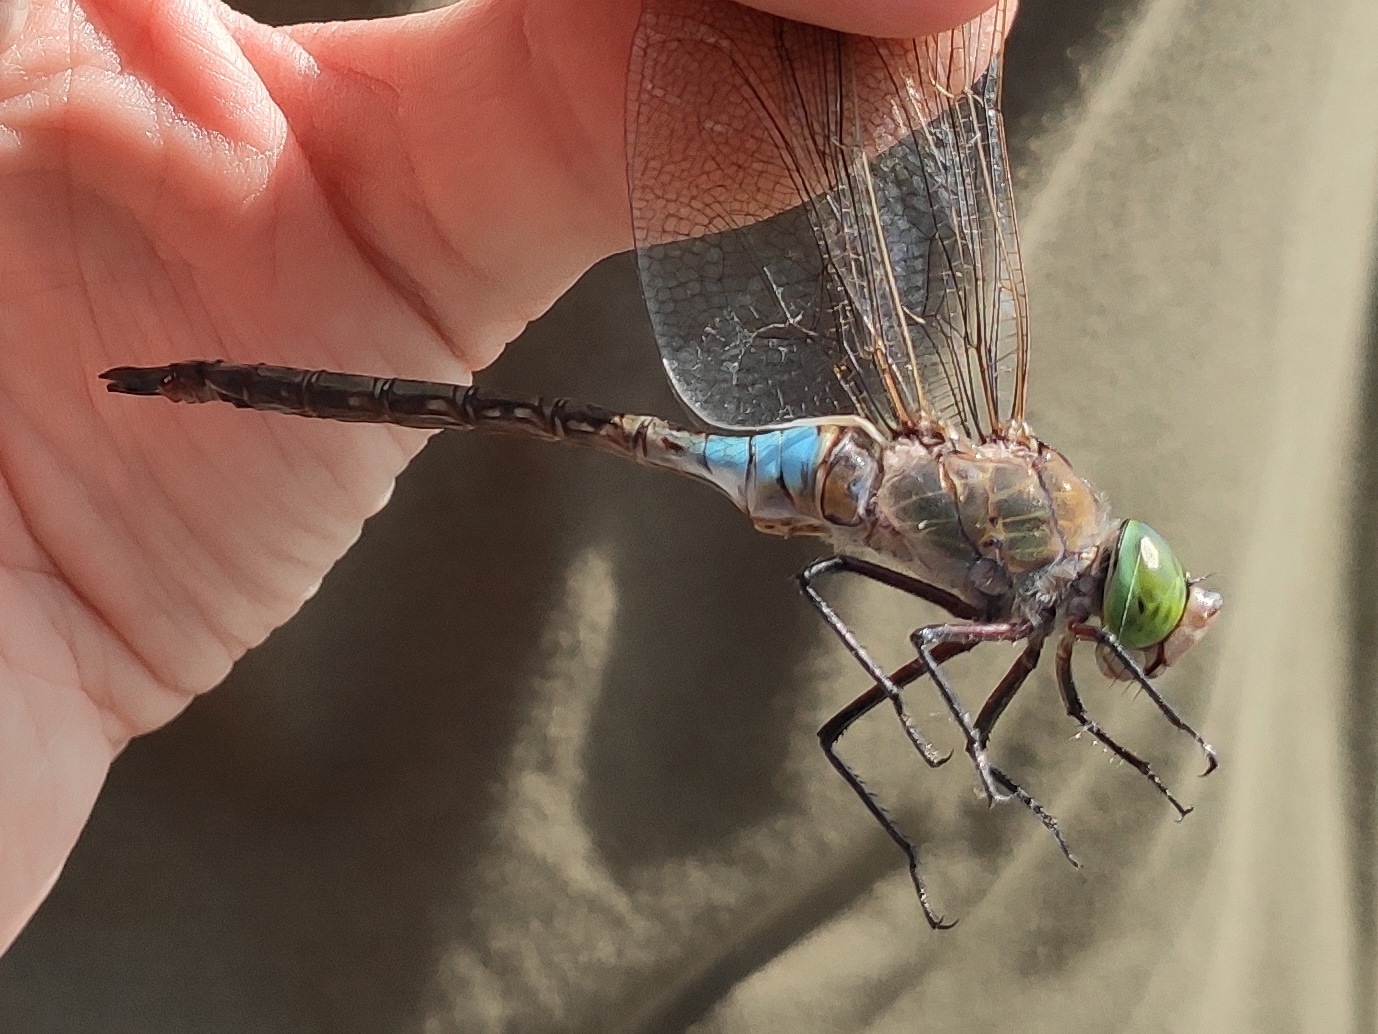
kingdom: Animalia
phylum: Arthropoda
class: Insecta
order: Odonata
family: Aeshnidae
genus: Anax
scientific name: Anax parthenope
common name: Lesser emperor
